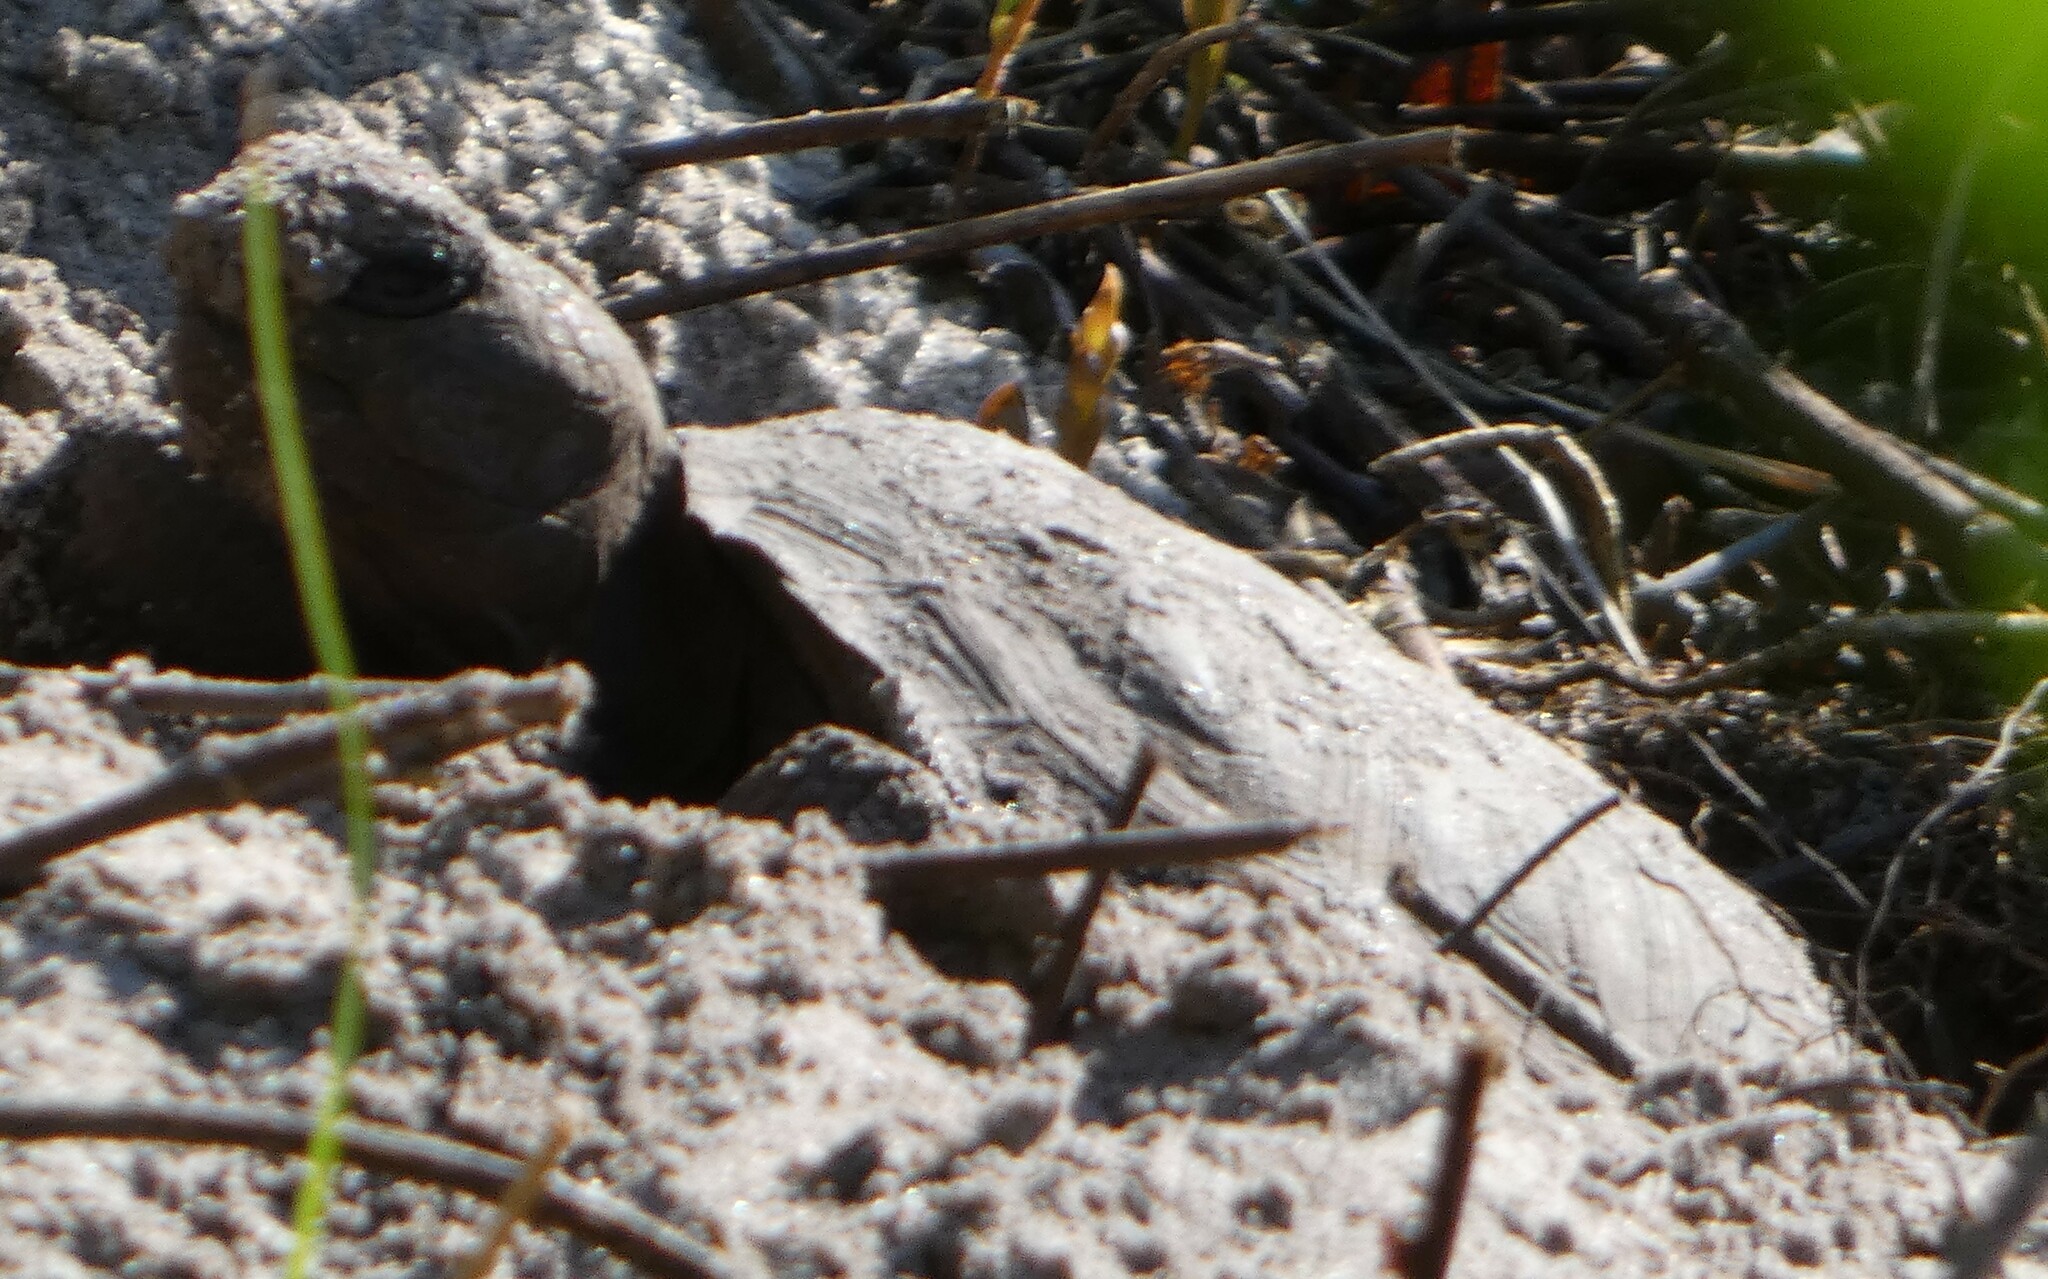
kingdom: Animalia
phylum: Chordata
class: Testudines
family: Testudinidae
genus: Gopherus
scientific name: Gopherus polyphemus
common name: Florida gopher tortoise
